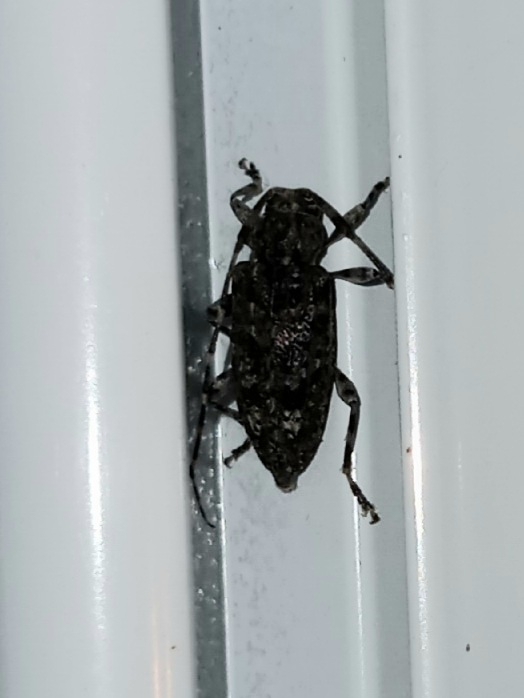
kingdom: Animalia
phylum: Arthropoda
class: Insecta
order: Coleoptera
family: Cerambycidae
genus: Astyleiopus
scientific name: Astyleiopus variegatus
